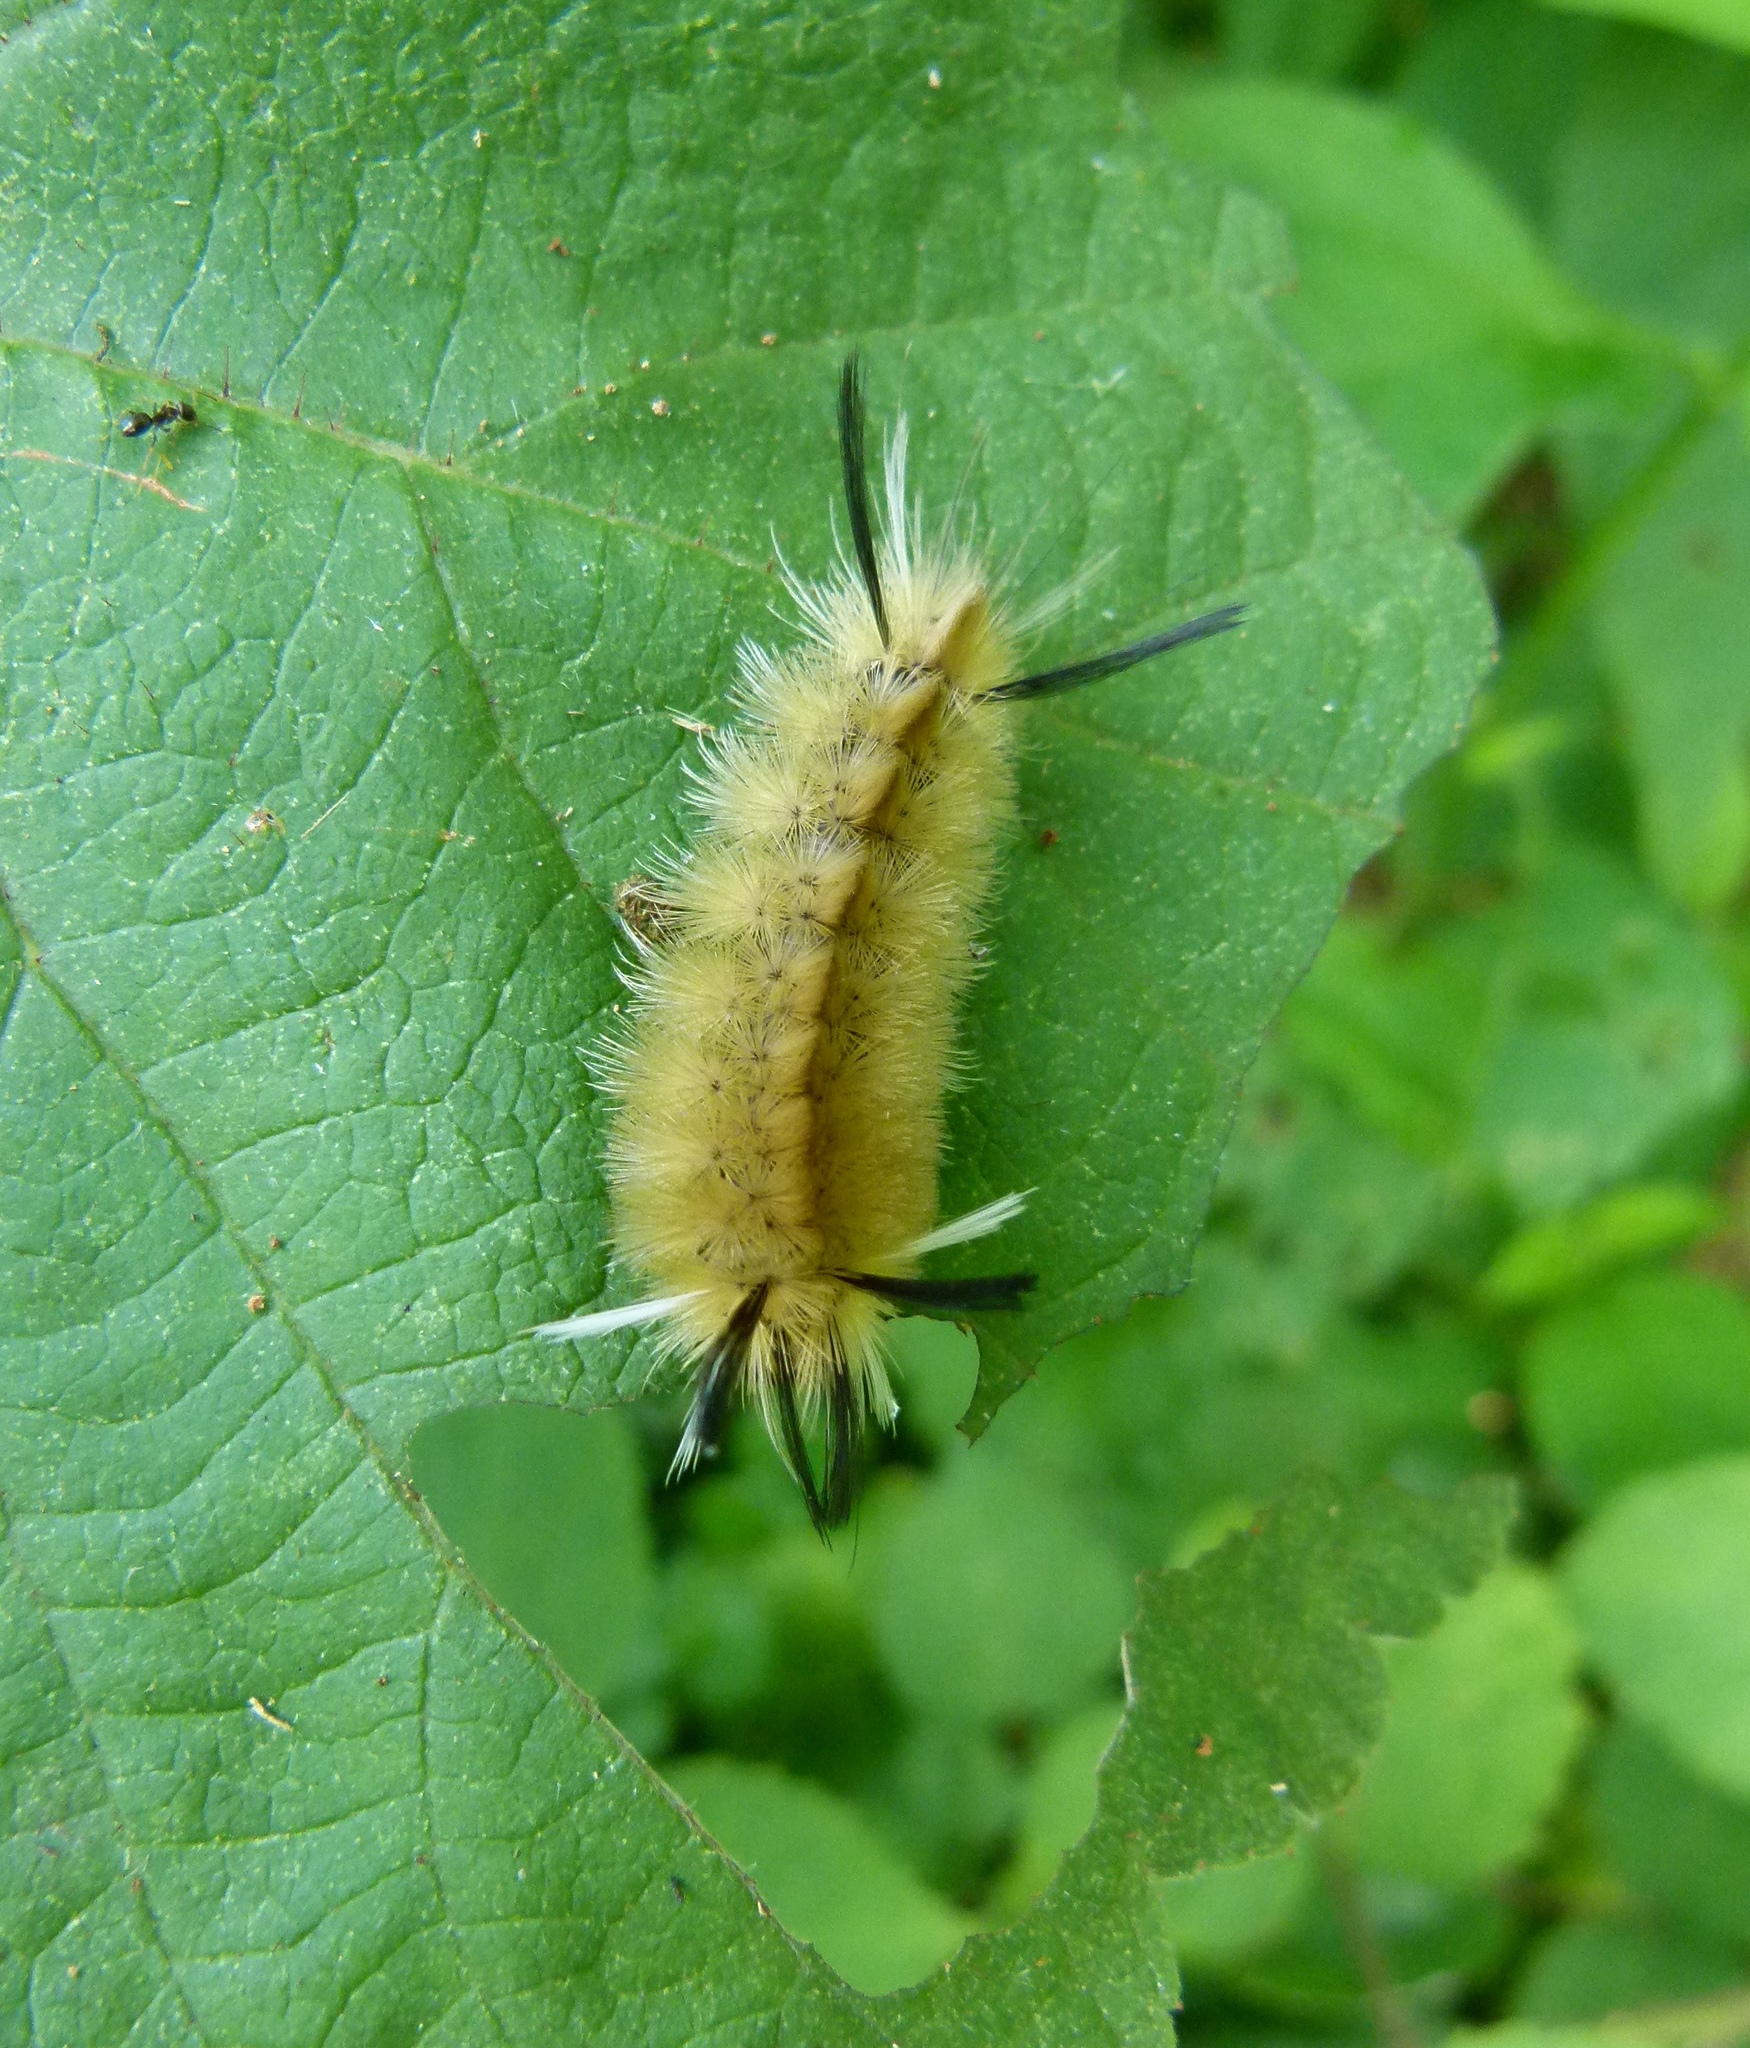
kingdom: Animalia
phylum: Arthropoda
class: Insecta
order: Lepidoptera
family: Erebidae
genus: Halysidota
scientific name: Halysidota tessellaris
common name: Banded tussock moth
